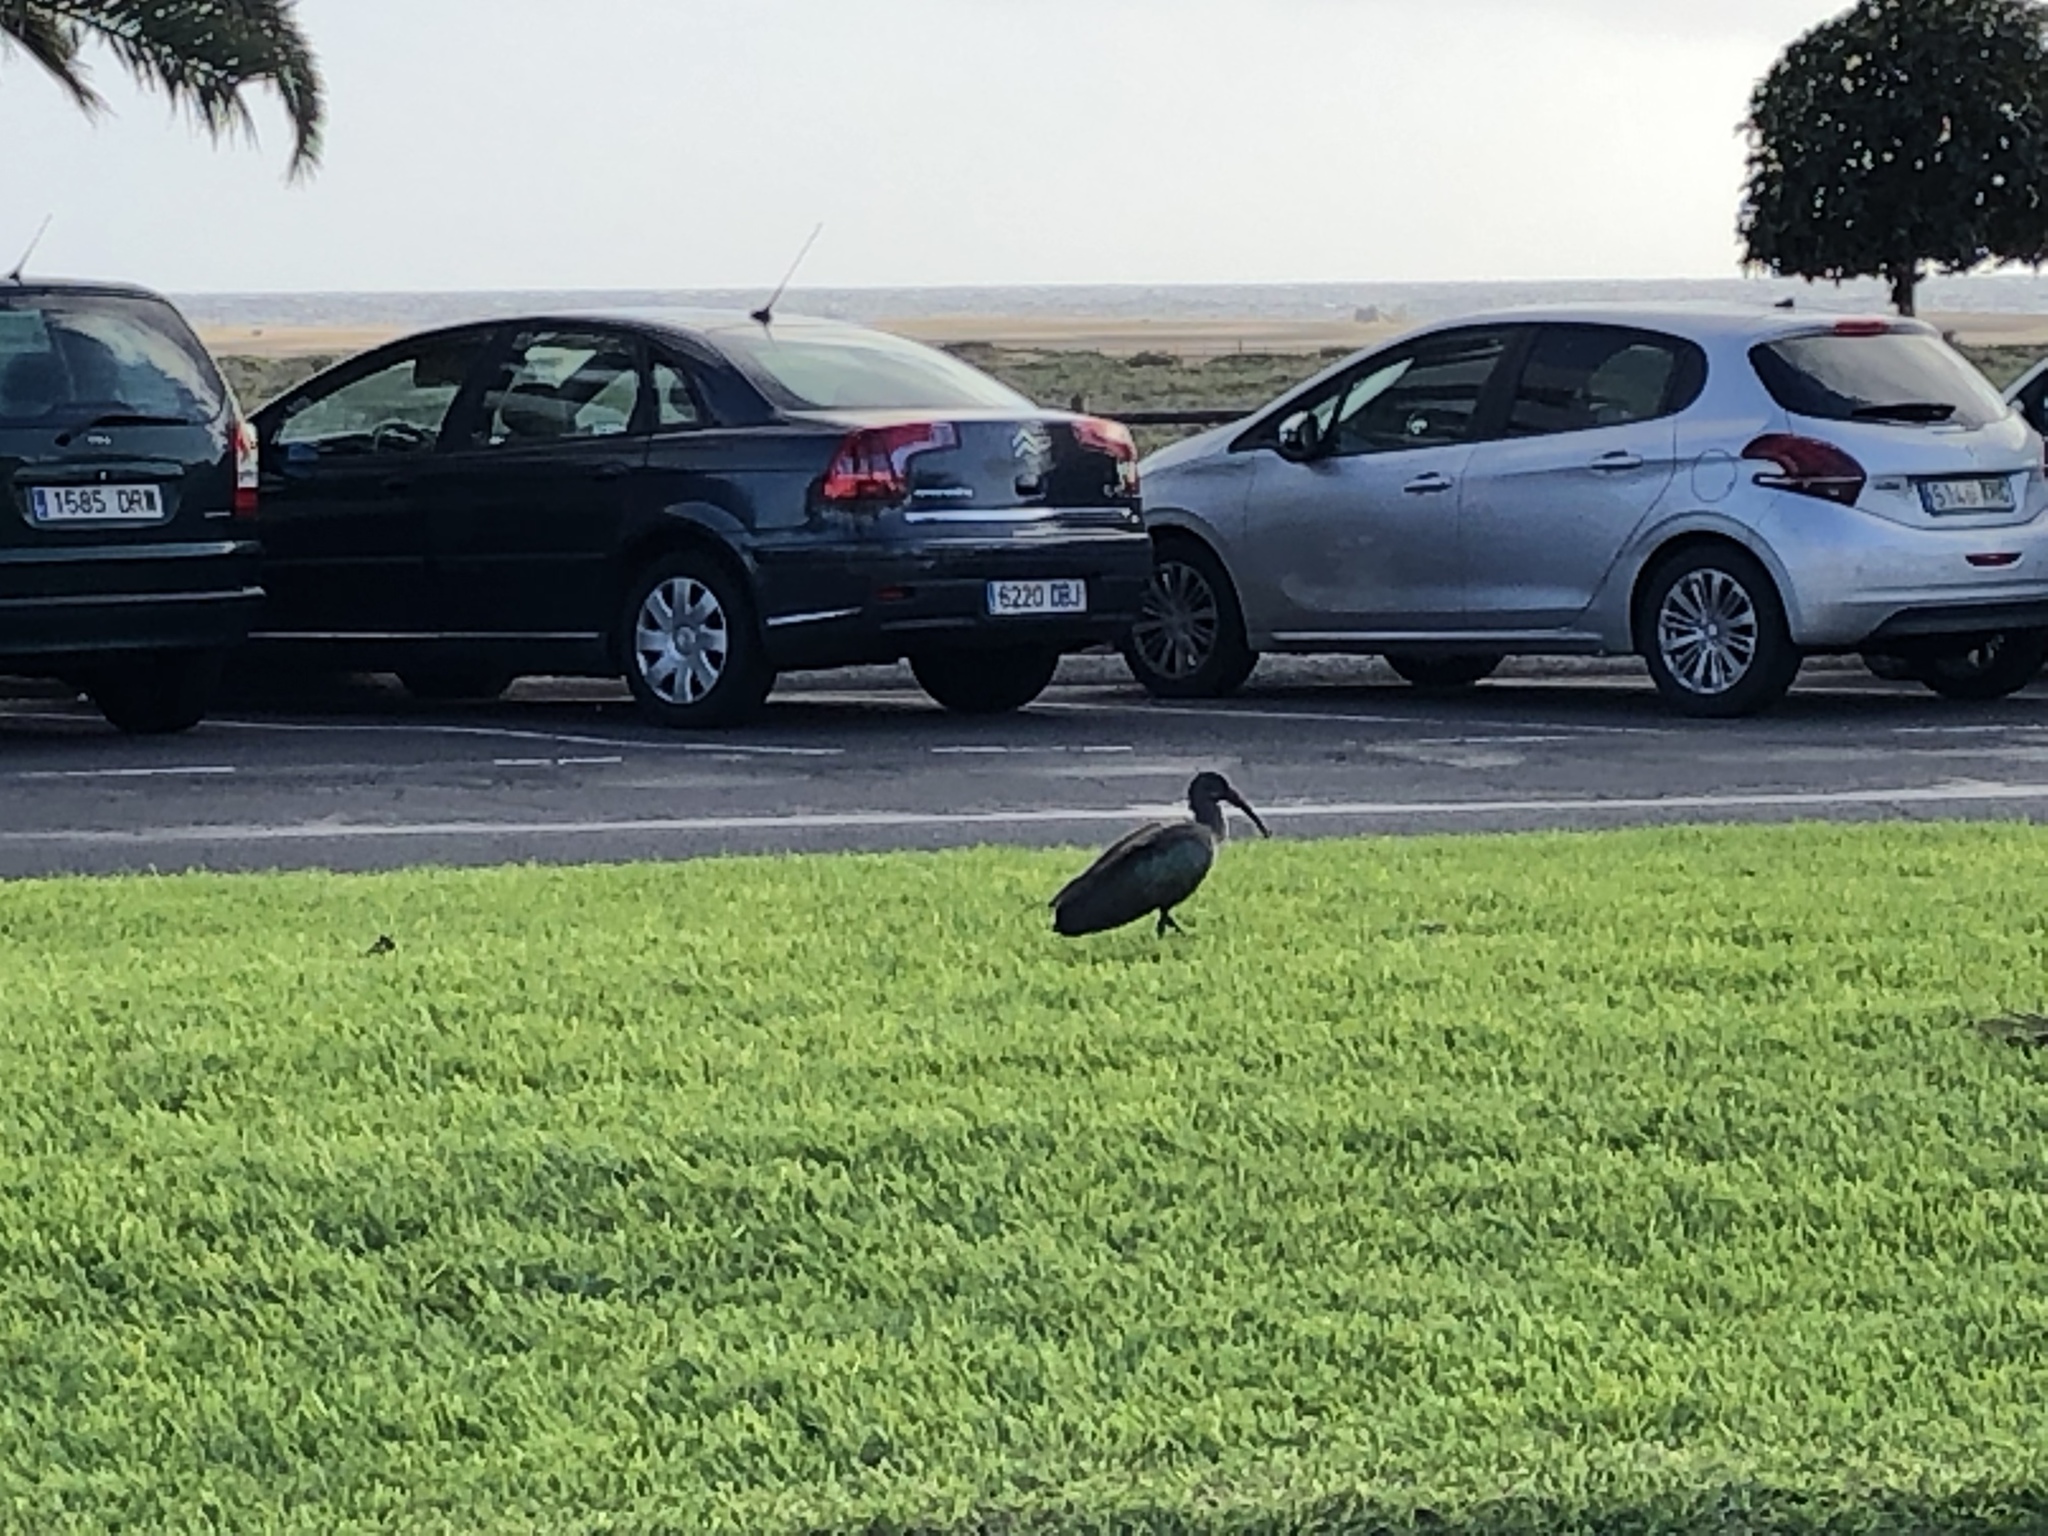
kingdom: Animalia
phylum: Chordata
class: Aves
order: Pelecaniformes
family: Threskiornithidae
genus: Bostrychia
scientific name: Bostrychia hagedash
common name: Hadada ibis
